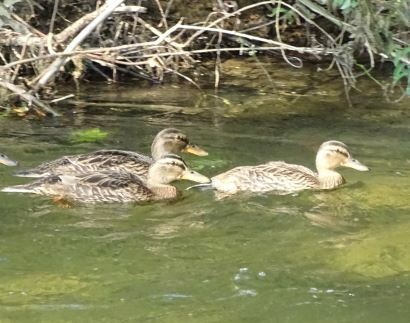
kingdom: Animalia
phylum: Chordata
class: Aves
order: Anseriformes
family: Anatidae
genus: Anas
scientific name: Anas platyrhynchos
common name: Mallard
